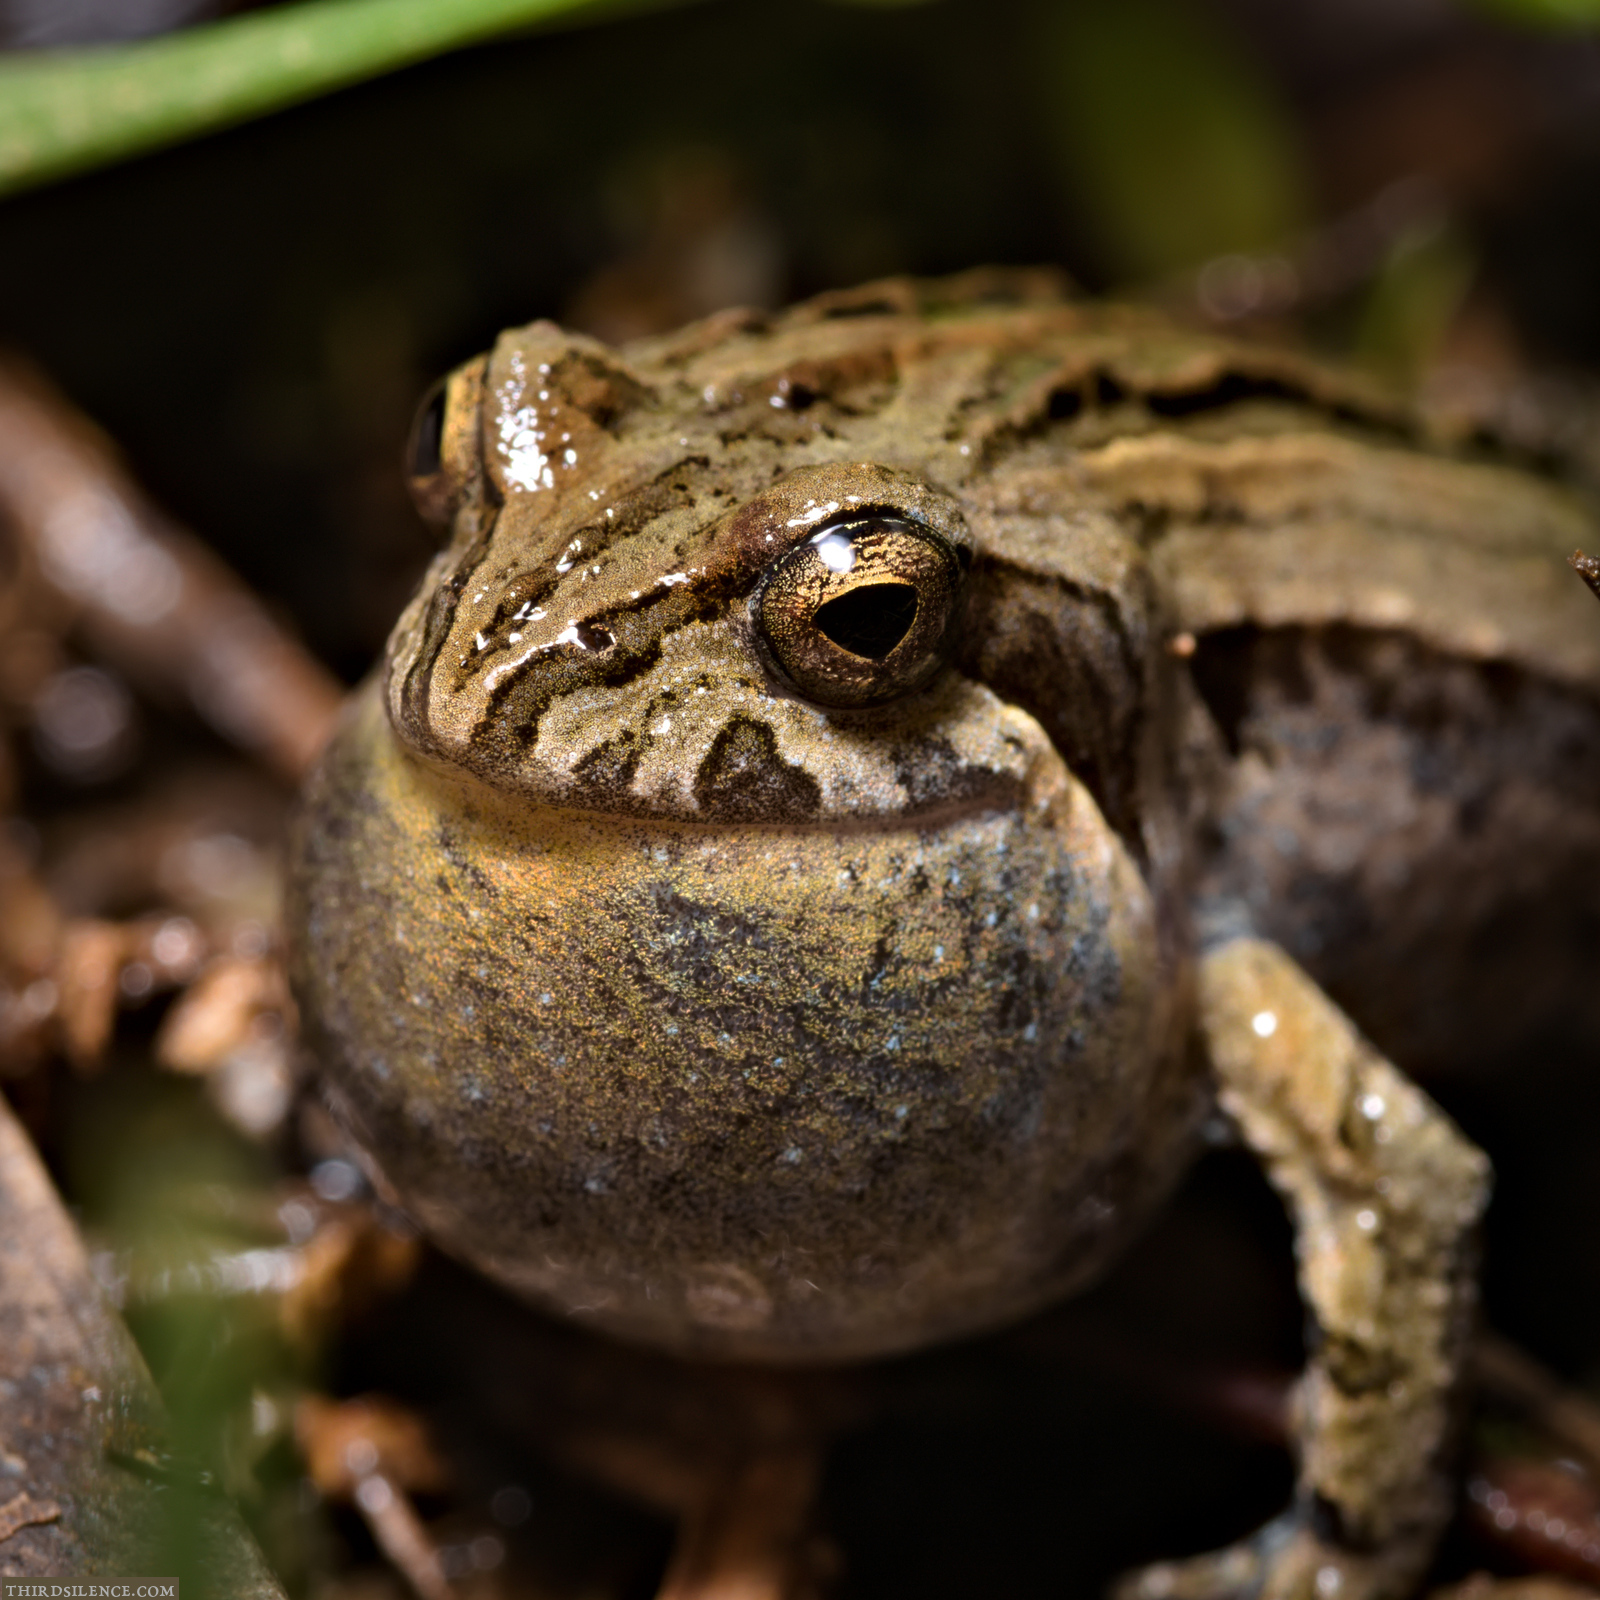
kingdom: Animalia
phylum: Chordata
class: Amphibia
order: Anura
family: Myobatrachidae
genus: Crinia
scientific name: Crinia signifera
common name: Brown froglet
